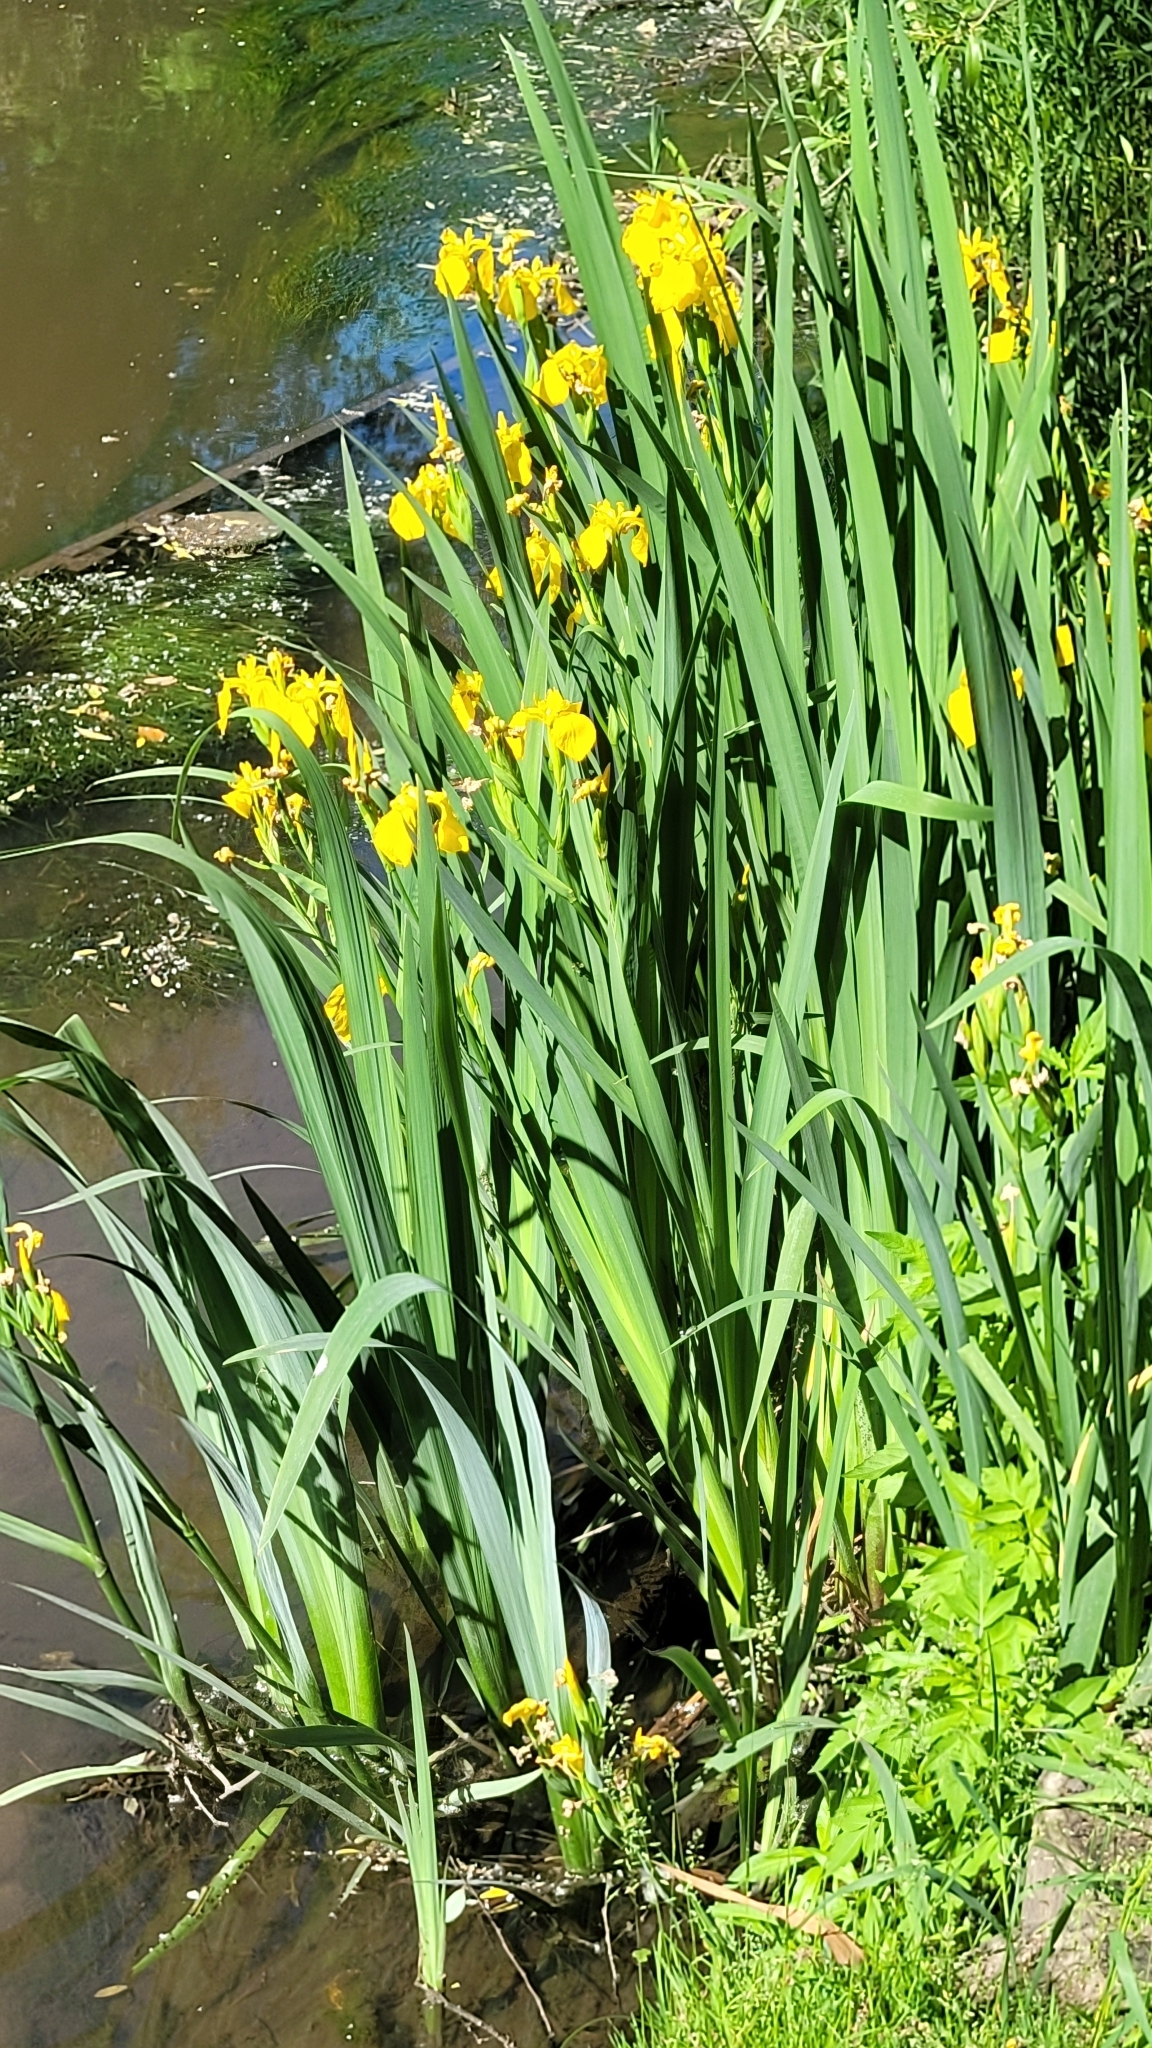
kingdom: Plantae
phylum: Tracheophyta
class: Liliopsida
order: Asparagales
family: Iridaceae
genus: Iris
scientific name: Iris pseudacorus
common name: Yellow flag
